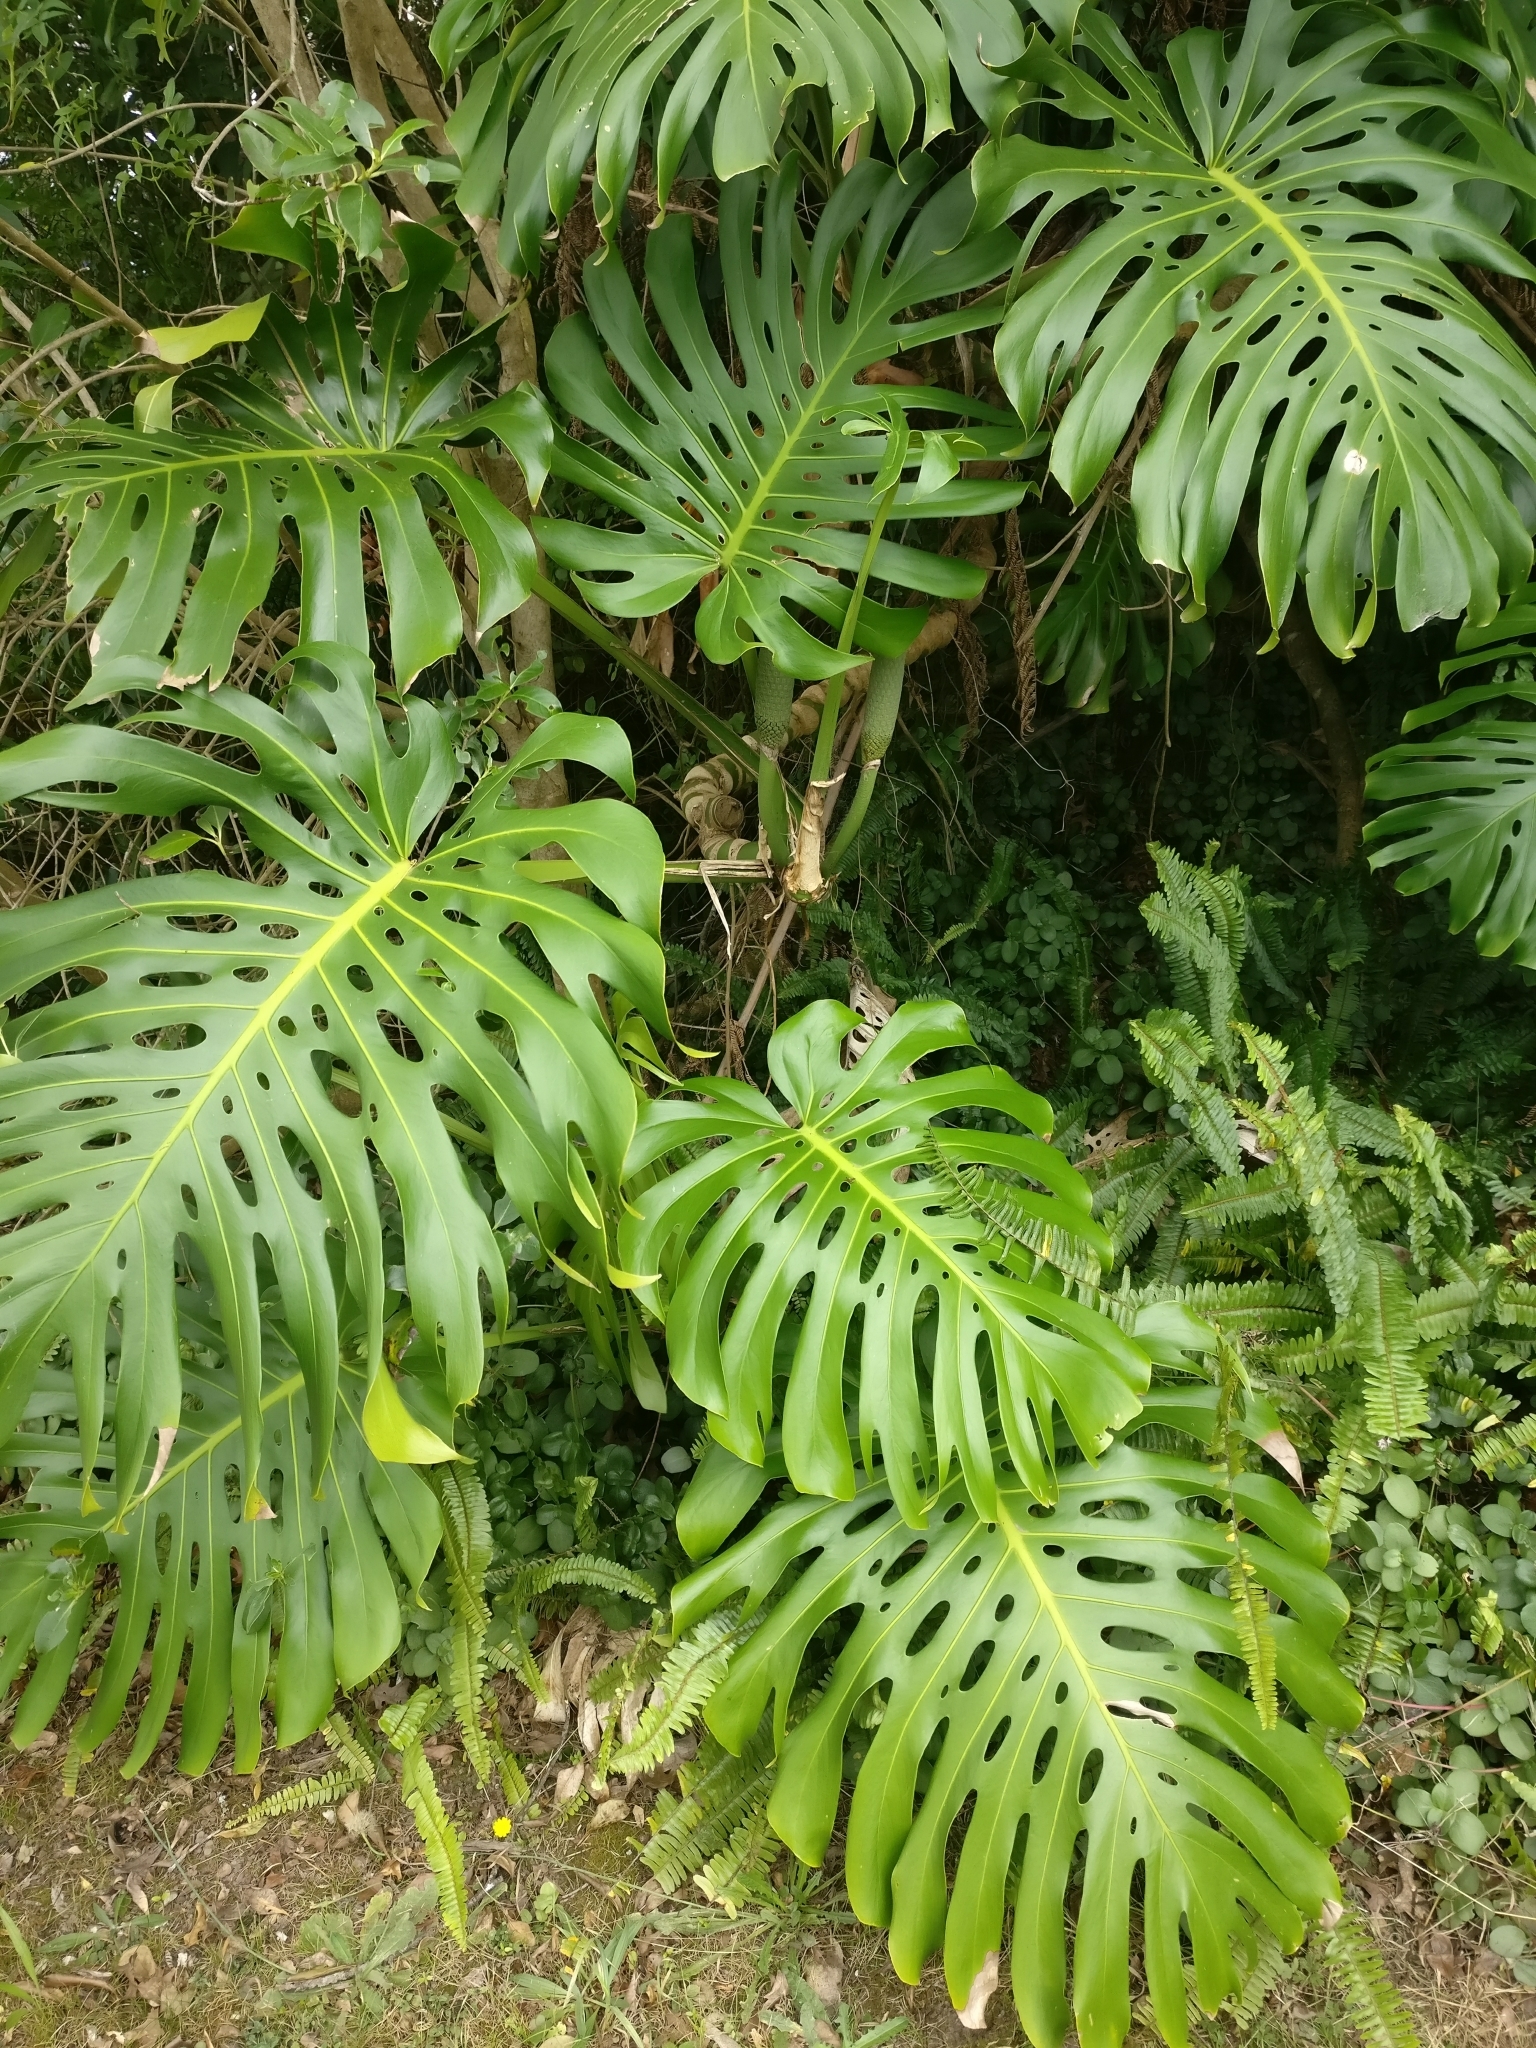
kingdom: Plantae
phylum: Tracheophyta
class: Liliopsida
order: Alismatales
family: Araceae
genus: Monstera
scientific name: Monstera deliciosa
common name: Cut-leaf-philodendron
